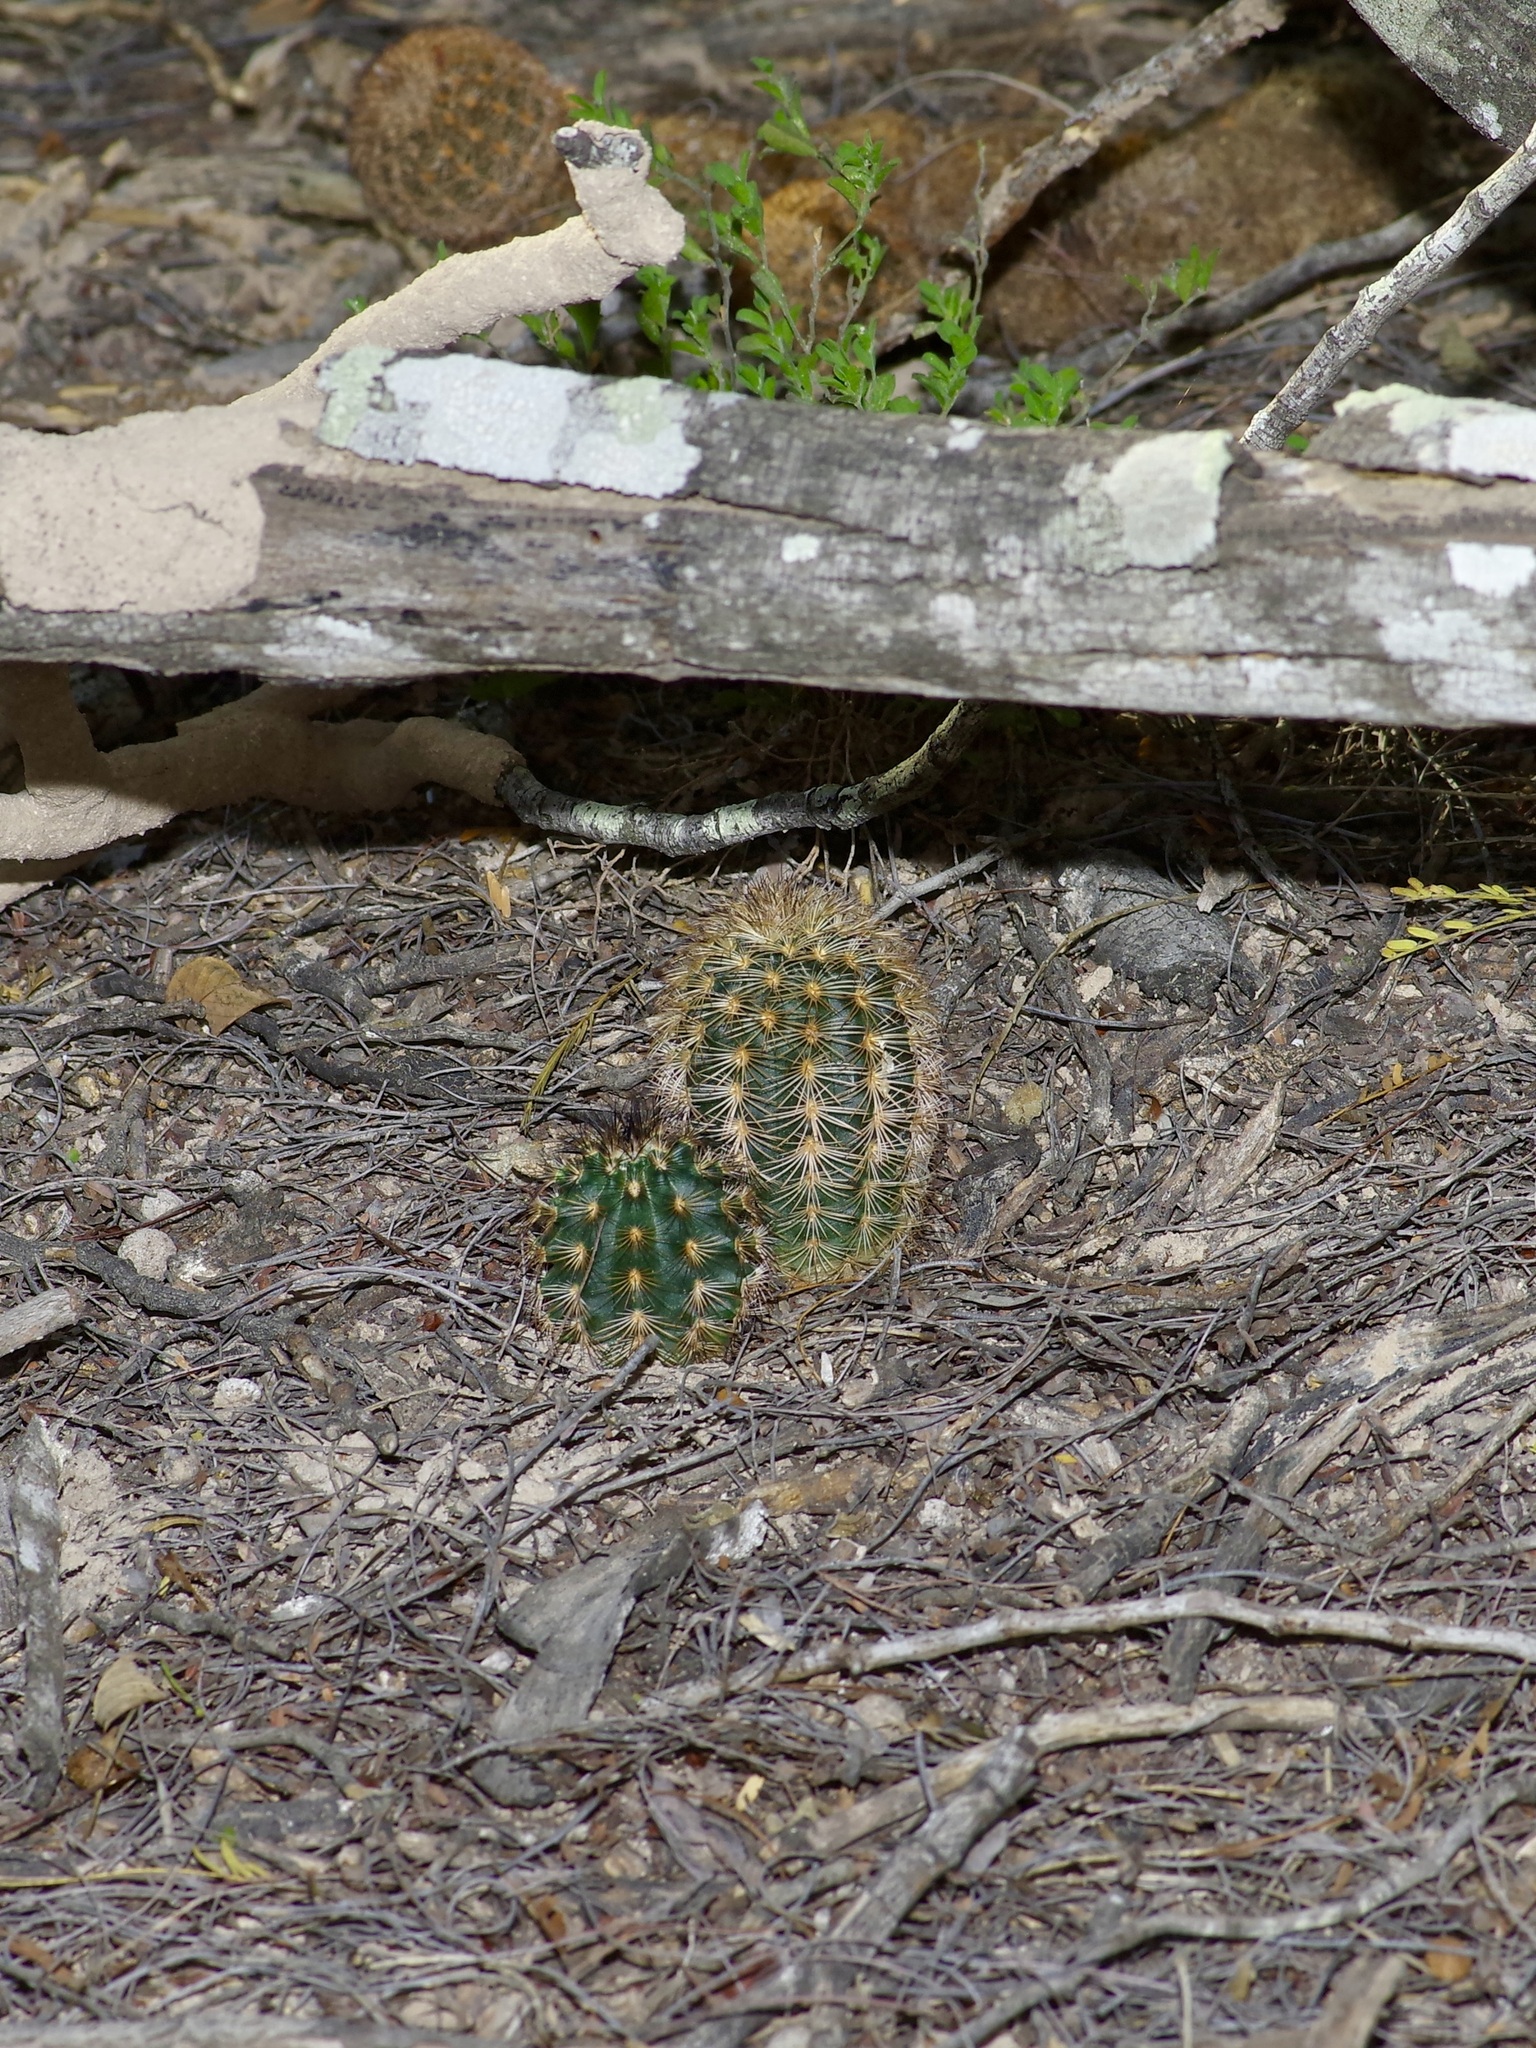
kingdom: Plantae
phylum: Tracheophyta
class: Magnoliopsida
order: Caryophyllales
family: Cactaceae
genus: Echinocereus
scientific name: Echinocereus reichenbachii
